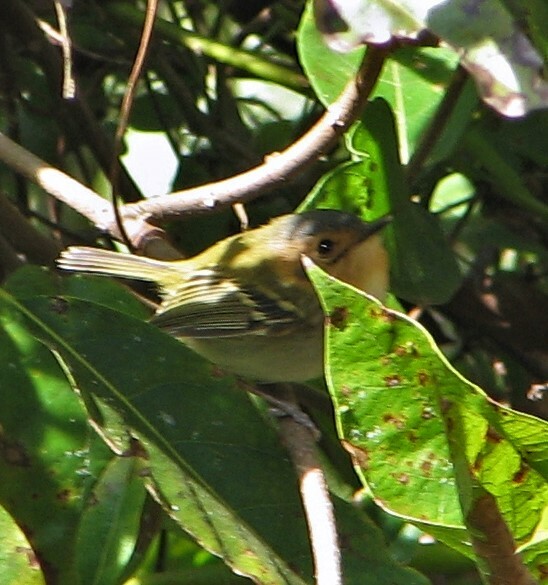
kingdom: Animalia
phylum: Chordata
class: Aves
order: Passeriformes
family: Tyrannidae
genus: Poecilotriccus
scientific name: Poecilotriccus plumbeiceps
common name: Ochre-faced tody-flycatcher
